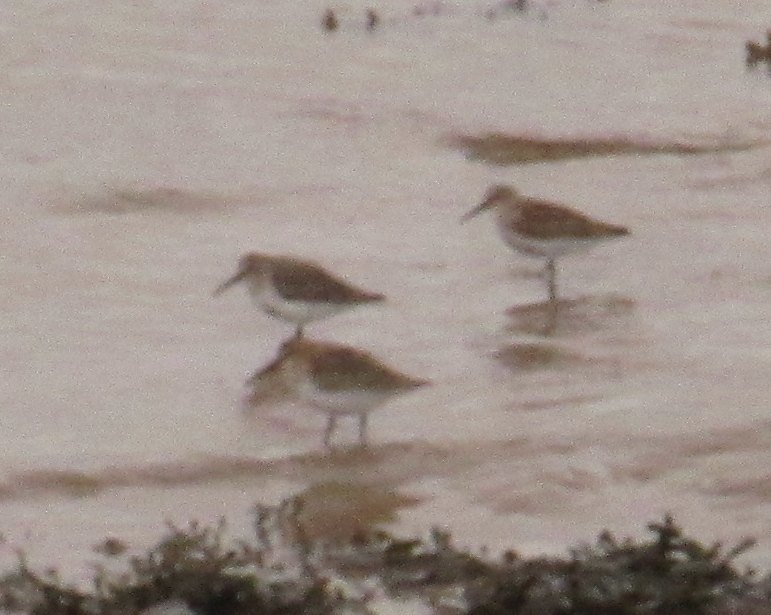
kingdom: Animalia
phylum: Chordata
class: Aves
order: Charadriiformes
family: Scolopacidae
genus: Calidris
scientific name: Calidris alpina
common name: Dunlin
